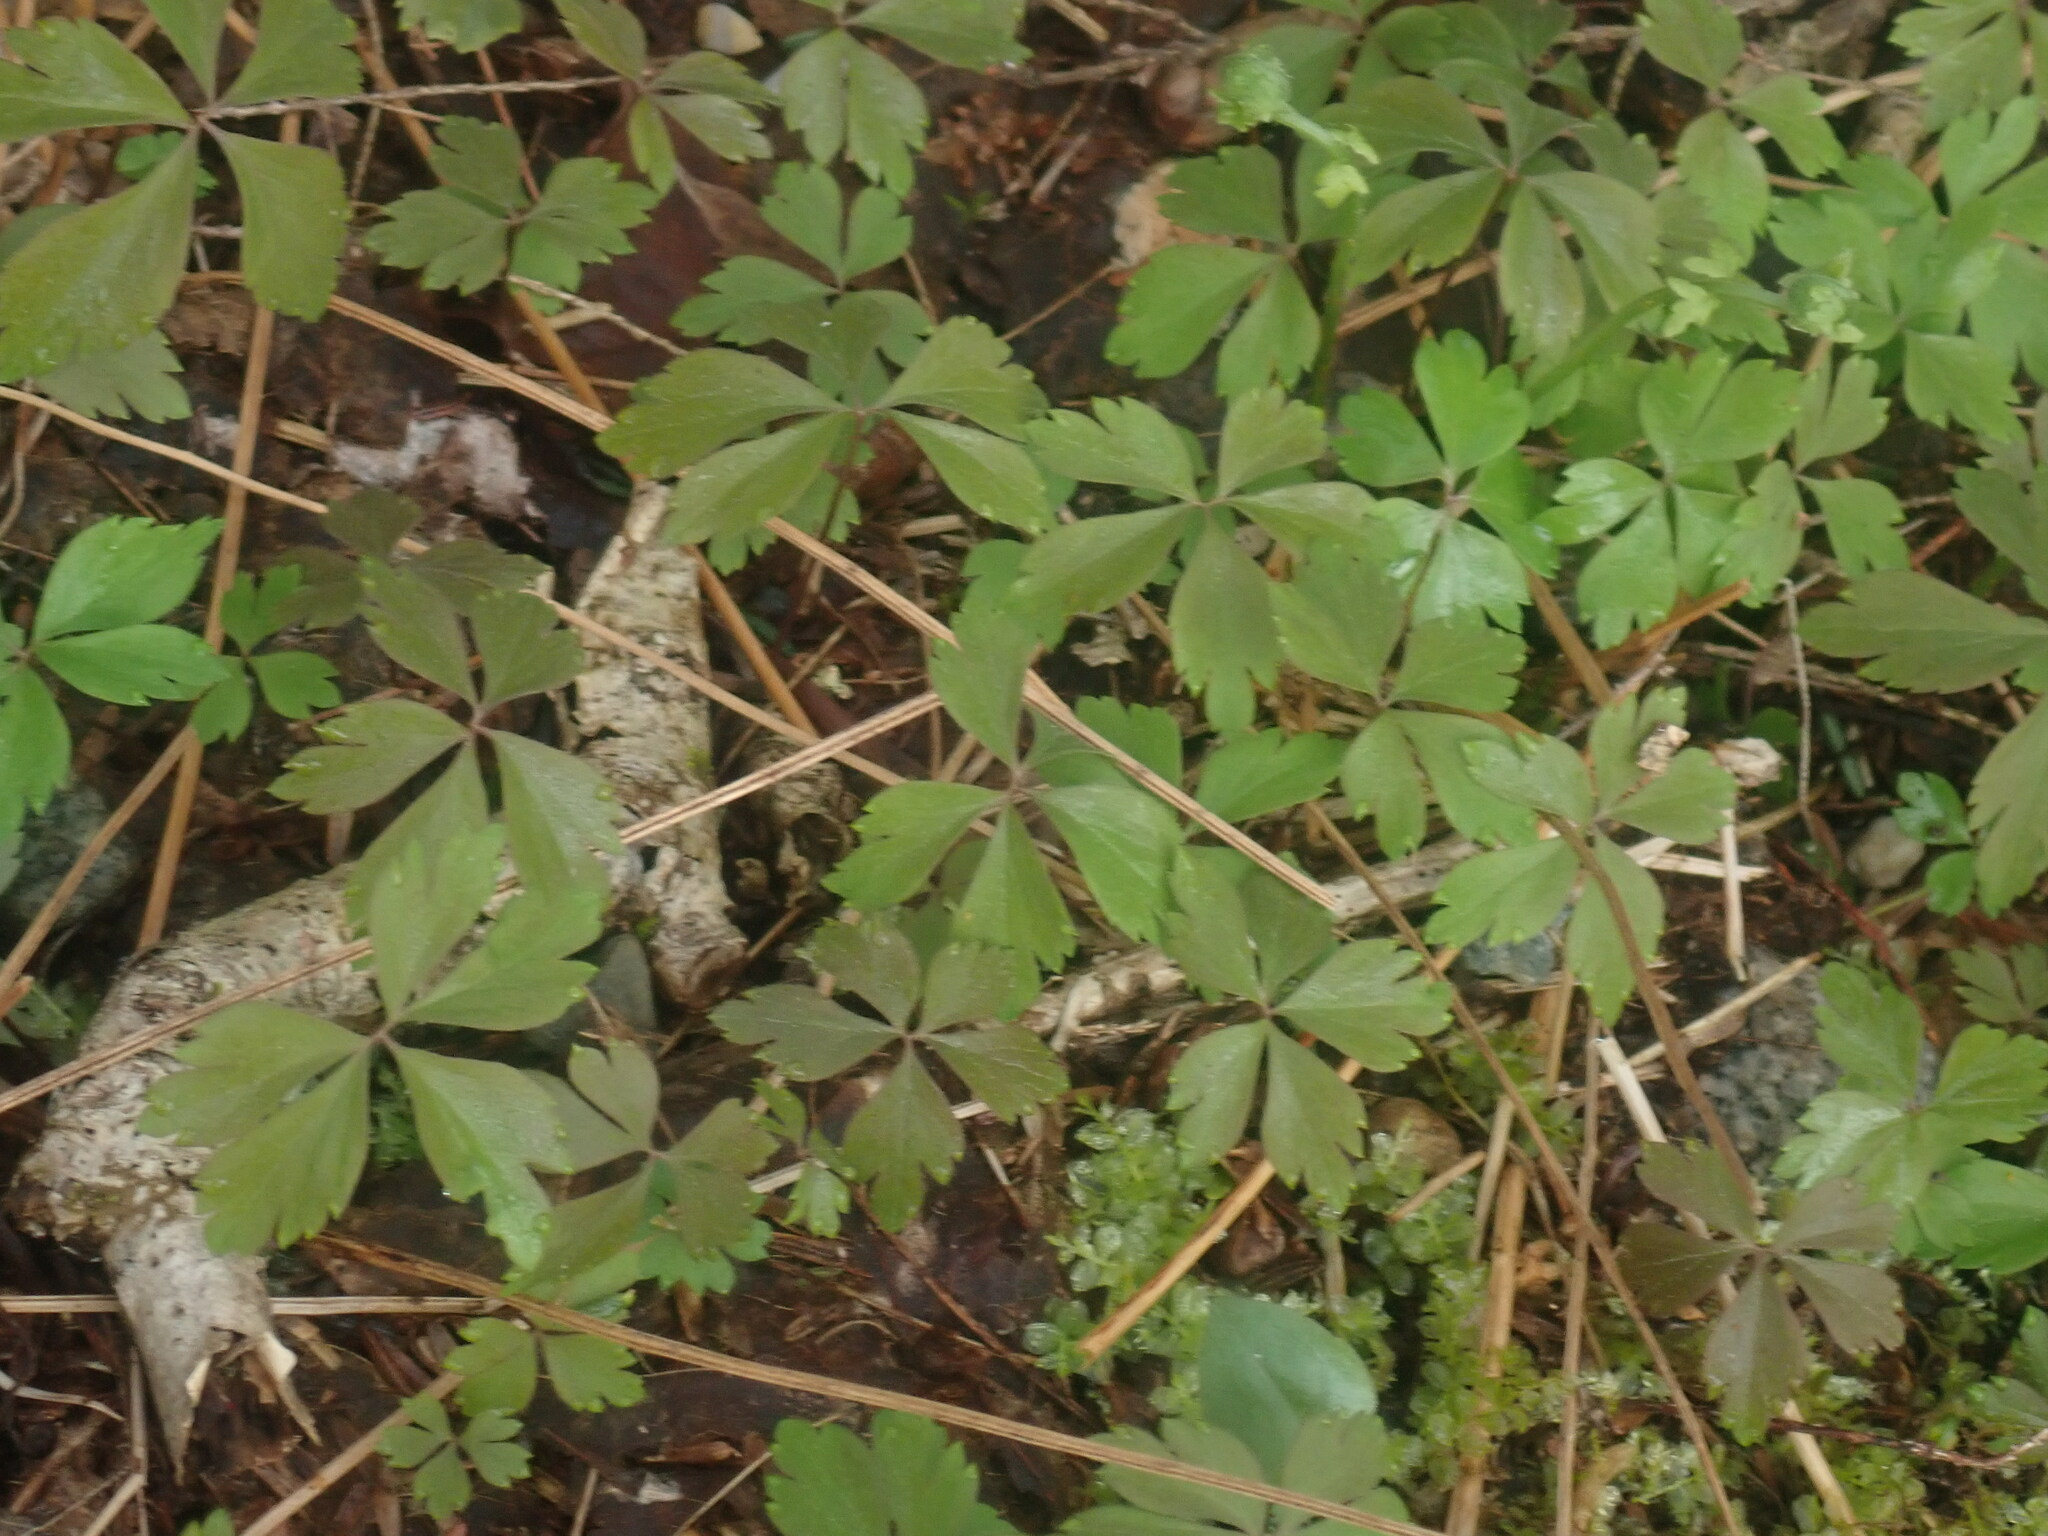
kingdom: Plantae
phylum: Tracheophyta
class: Magnoliopsida
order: Ranunculales
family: Ranunculaceae
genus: Anemone
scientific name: Anemone quinquefolia
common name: Wood anemone
